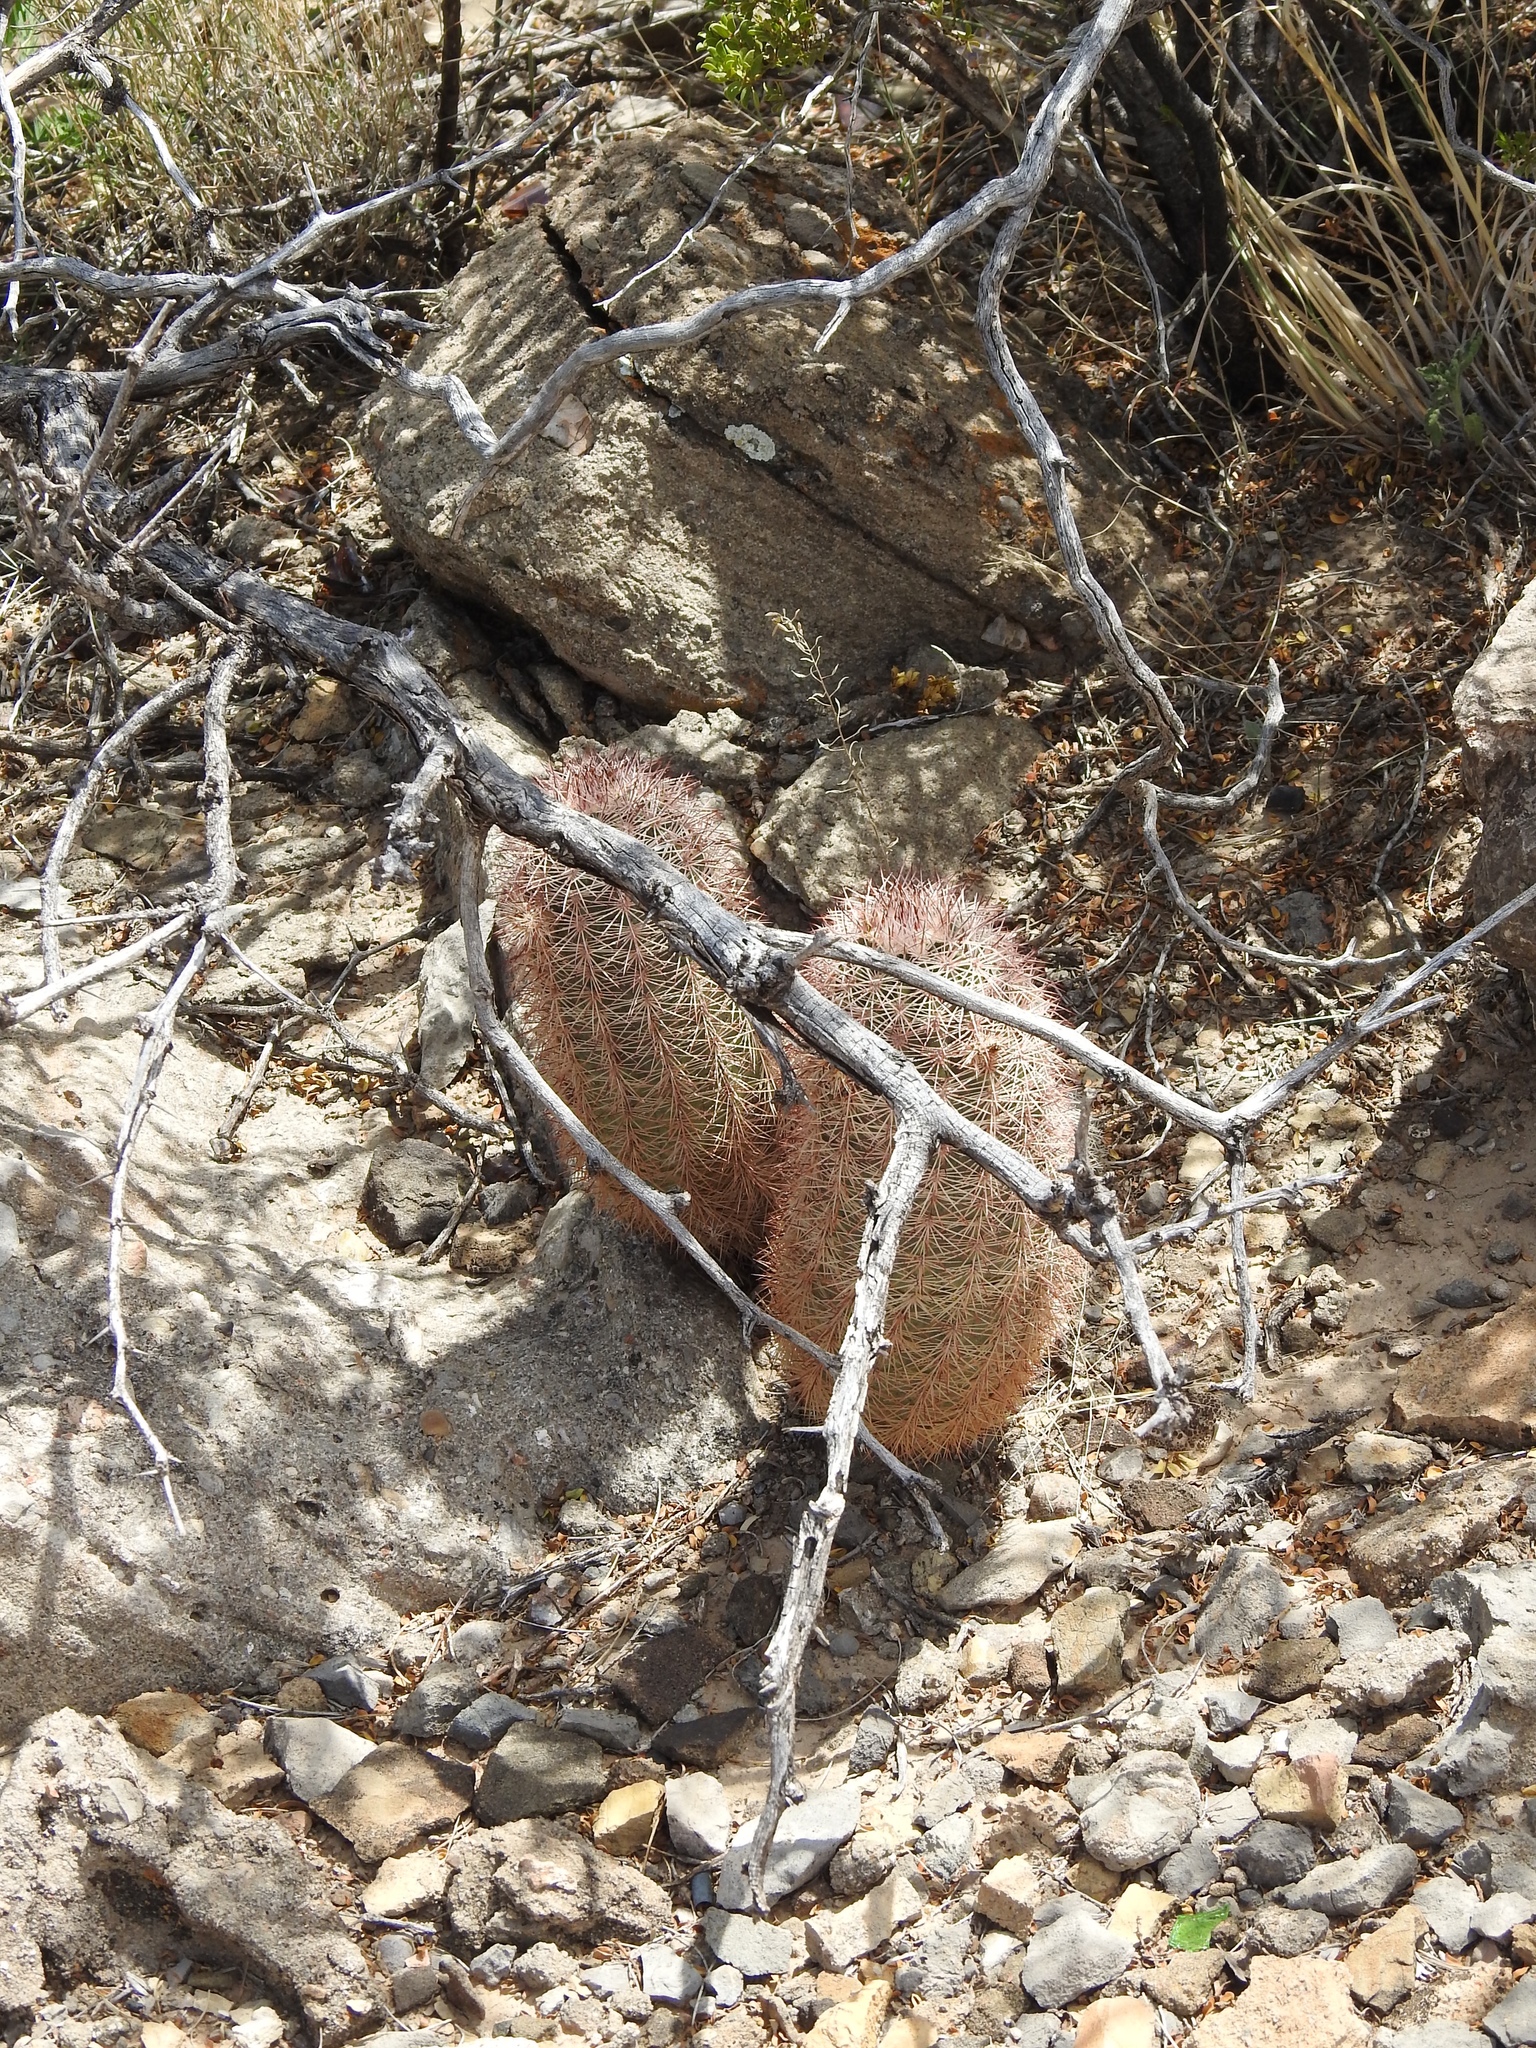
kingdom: Plantae
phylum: Tracheophyta
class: Magnoliopsida
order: Caryophyllales
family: Cactaceae
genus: Echinocereus
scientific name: Echinocereus dasyacanthus
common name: Spiny hedgehog cactus
